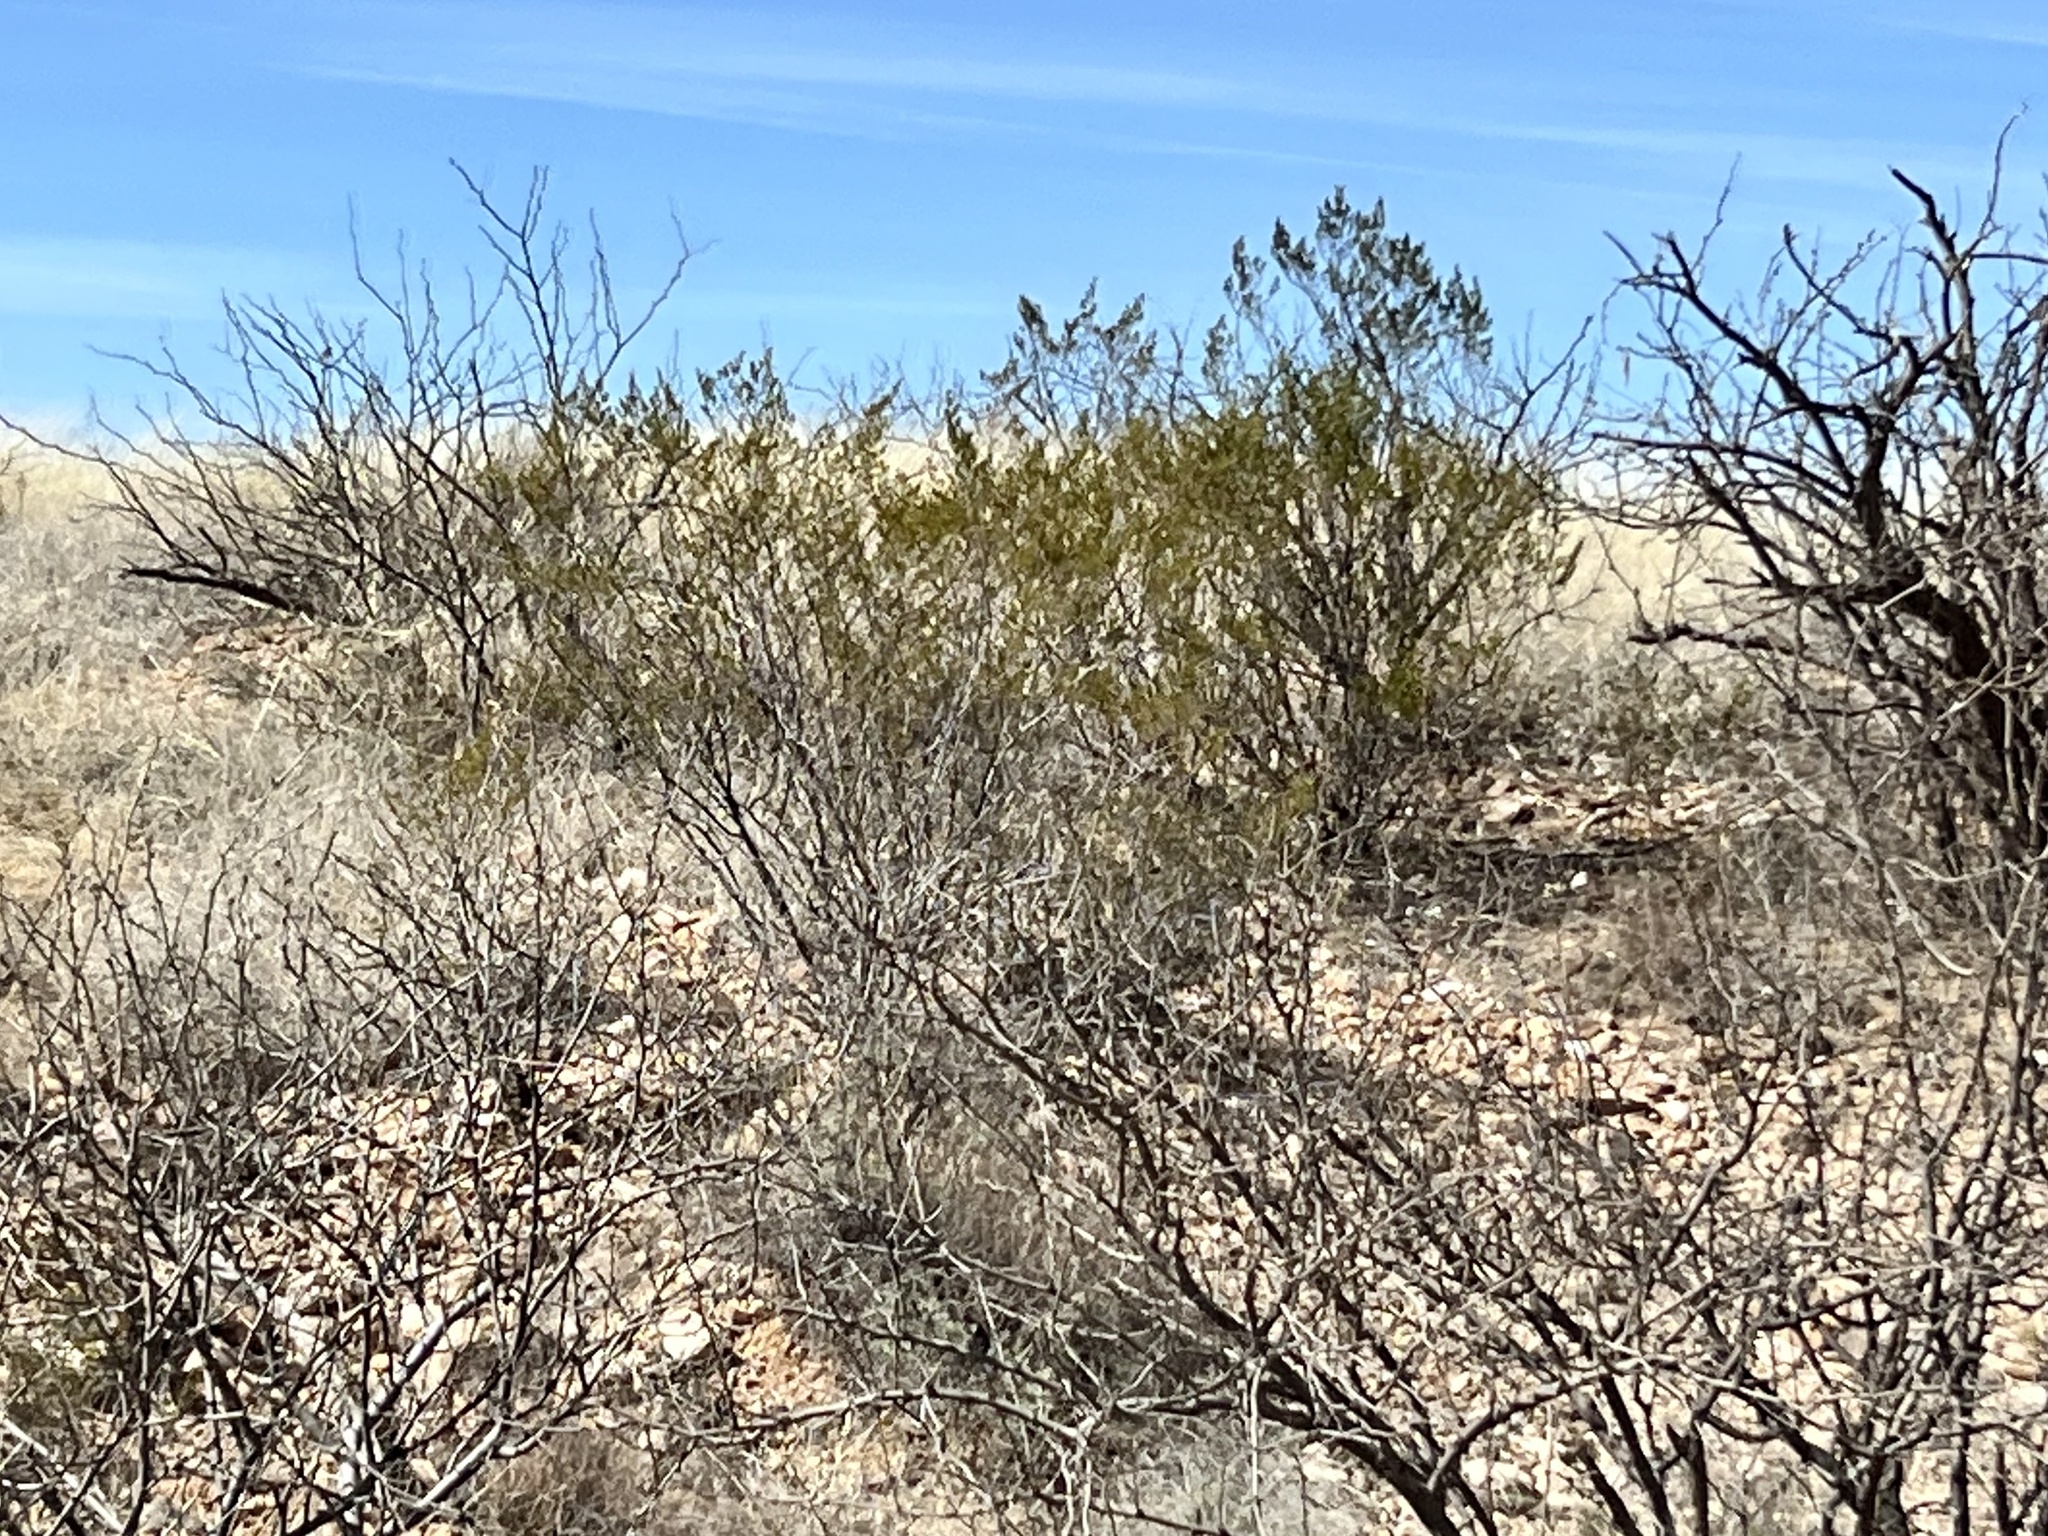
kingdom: Plantae
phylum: Tracheophyta
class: Magnoliopsida
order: Zygophyllales
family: Zygophyllaceae
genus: Larrea
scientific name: Larrea tridentata
